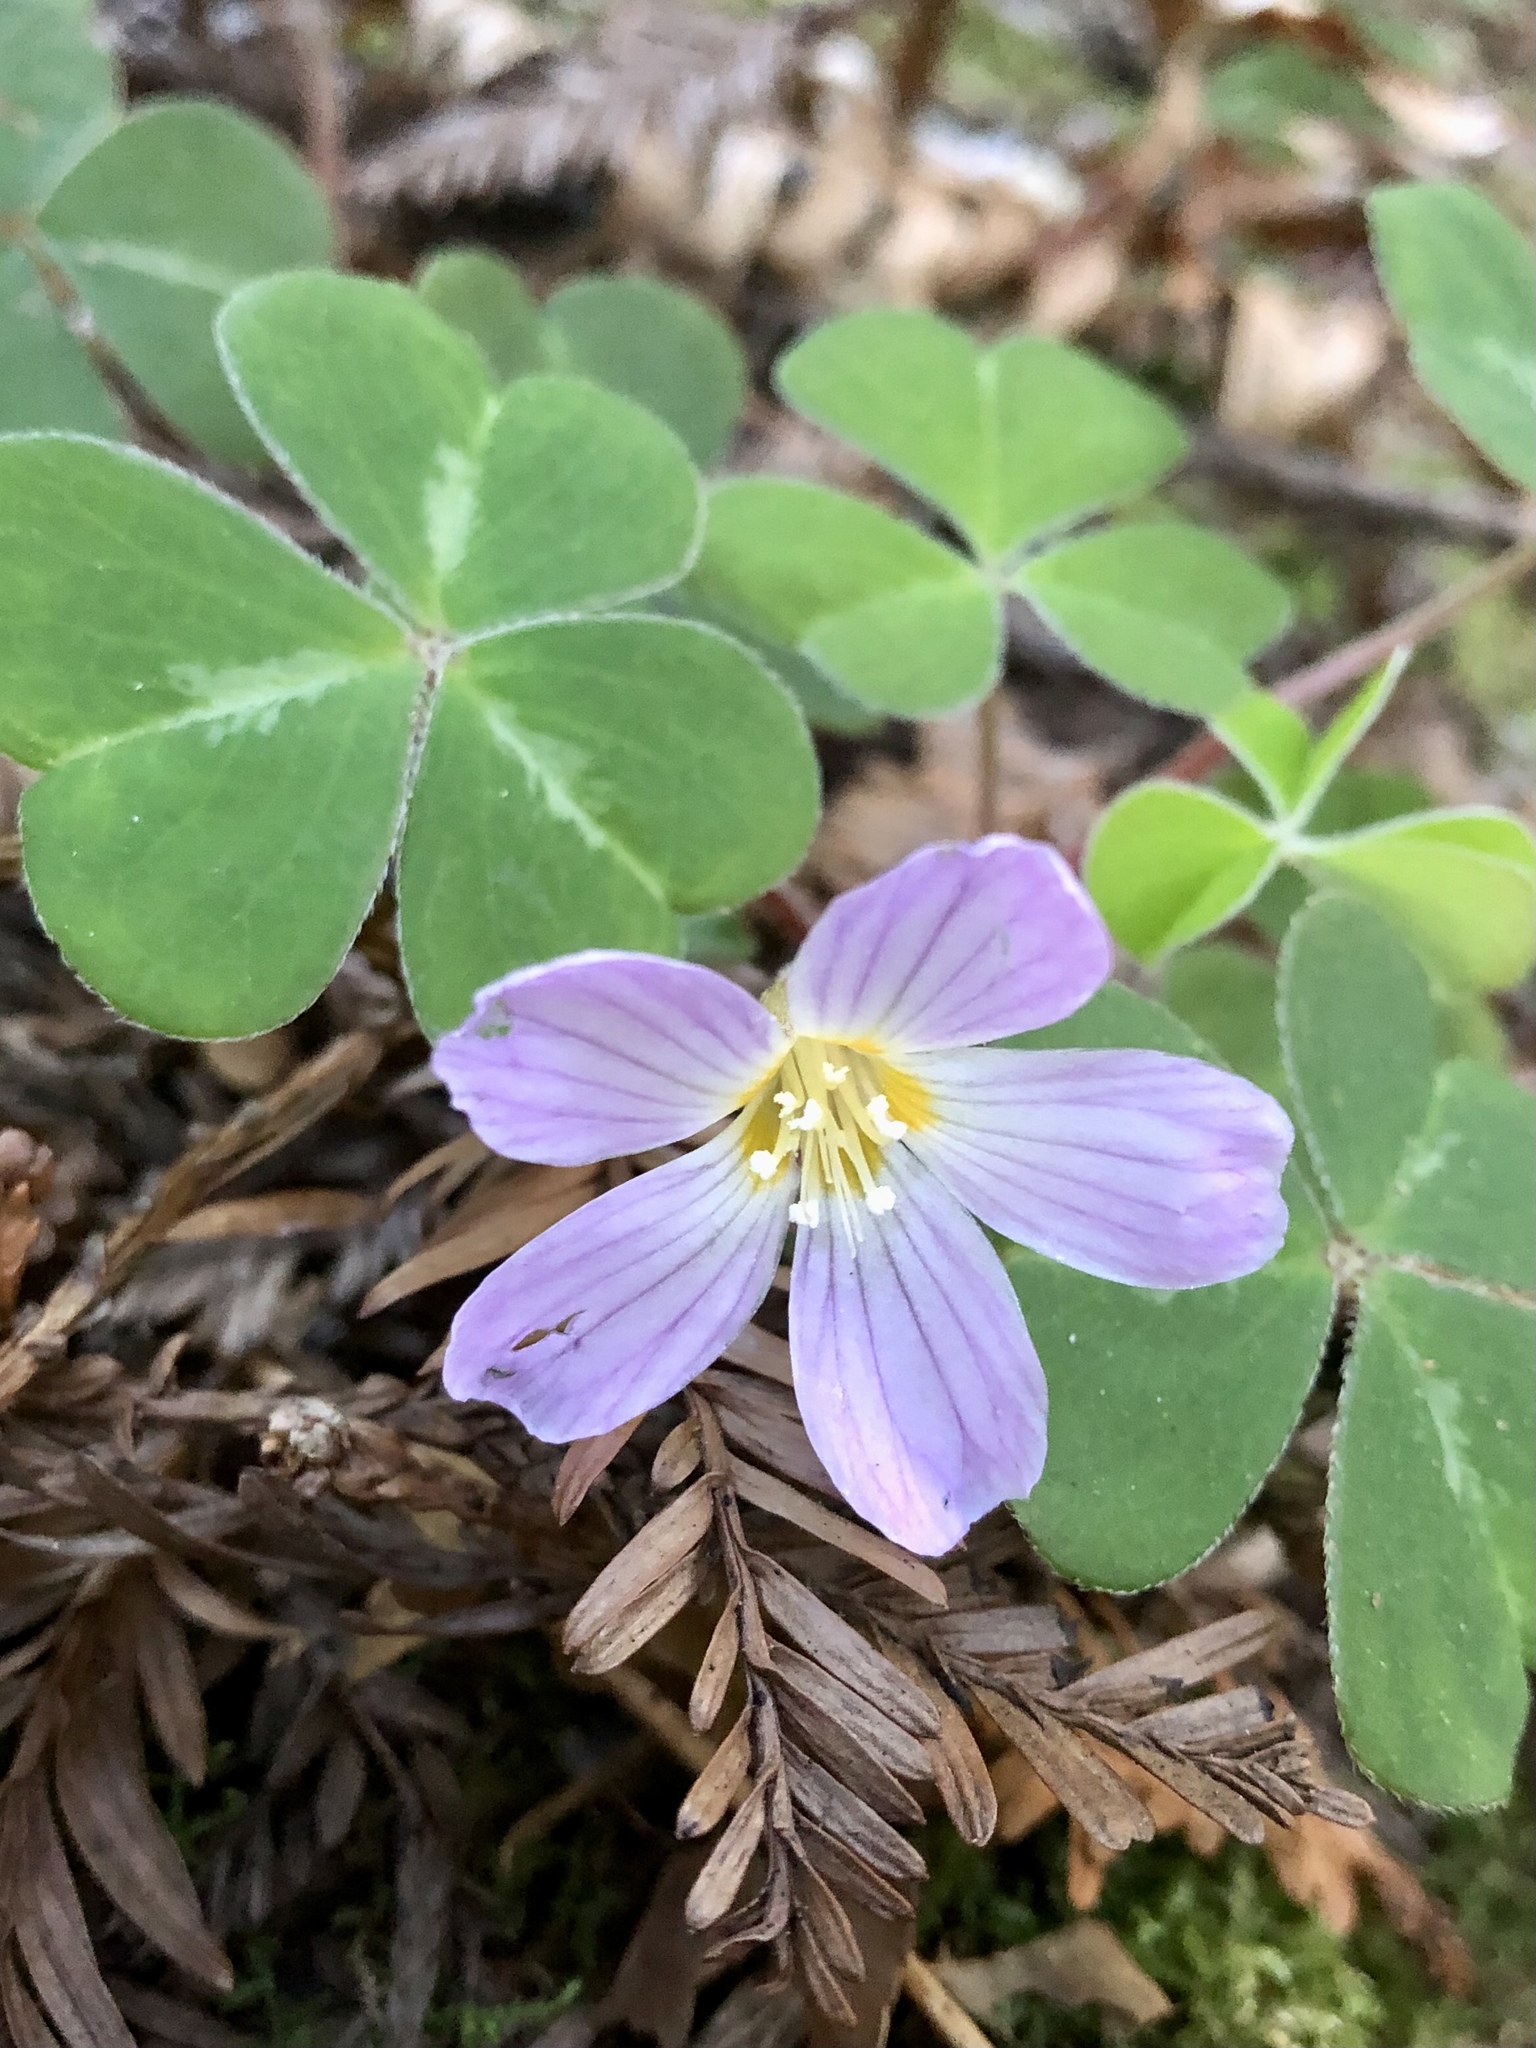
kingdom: Plantae
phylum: Tracheophyta
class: Magnoliopsida
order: Oxalidales
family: Oxalidaceae
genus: Oxalis
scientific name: Oxalis oregana
